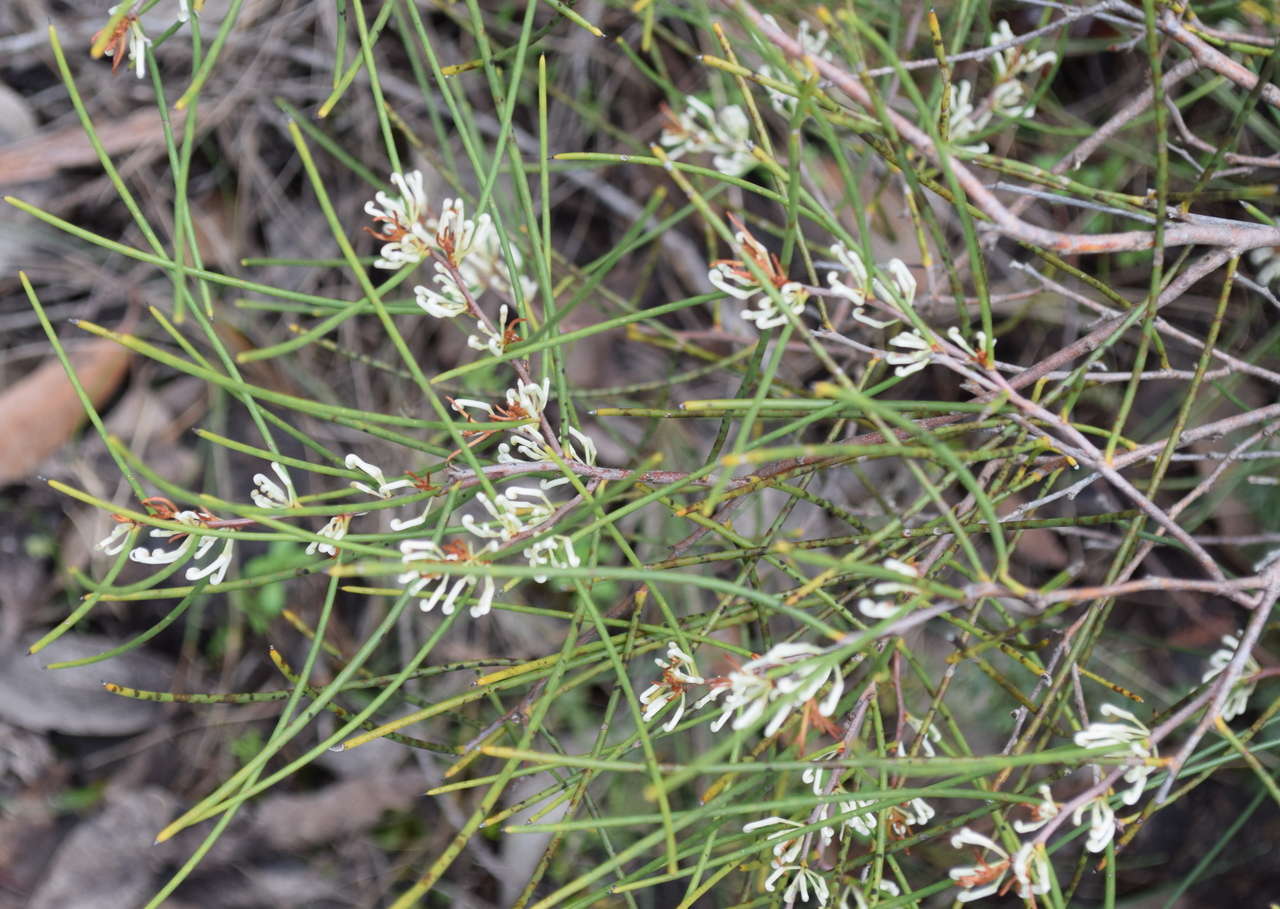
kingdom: Plantae
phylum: Tracheophyta
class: Magnoliopsida
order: Proteales
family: Proteaceae
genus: Hakea
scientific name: Hakea rostrata
